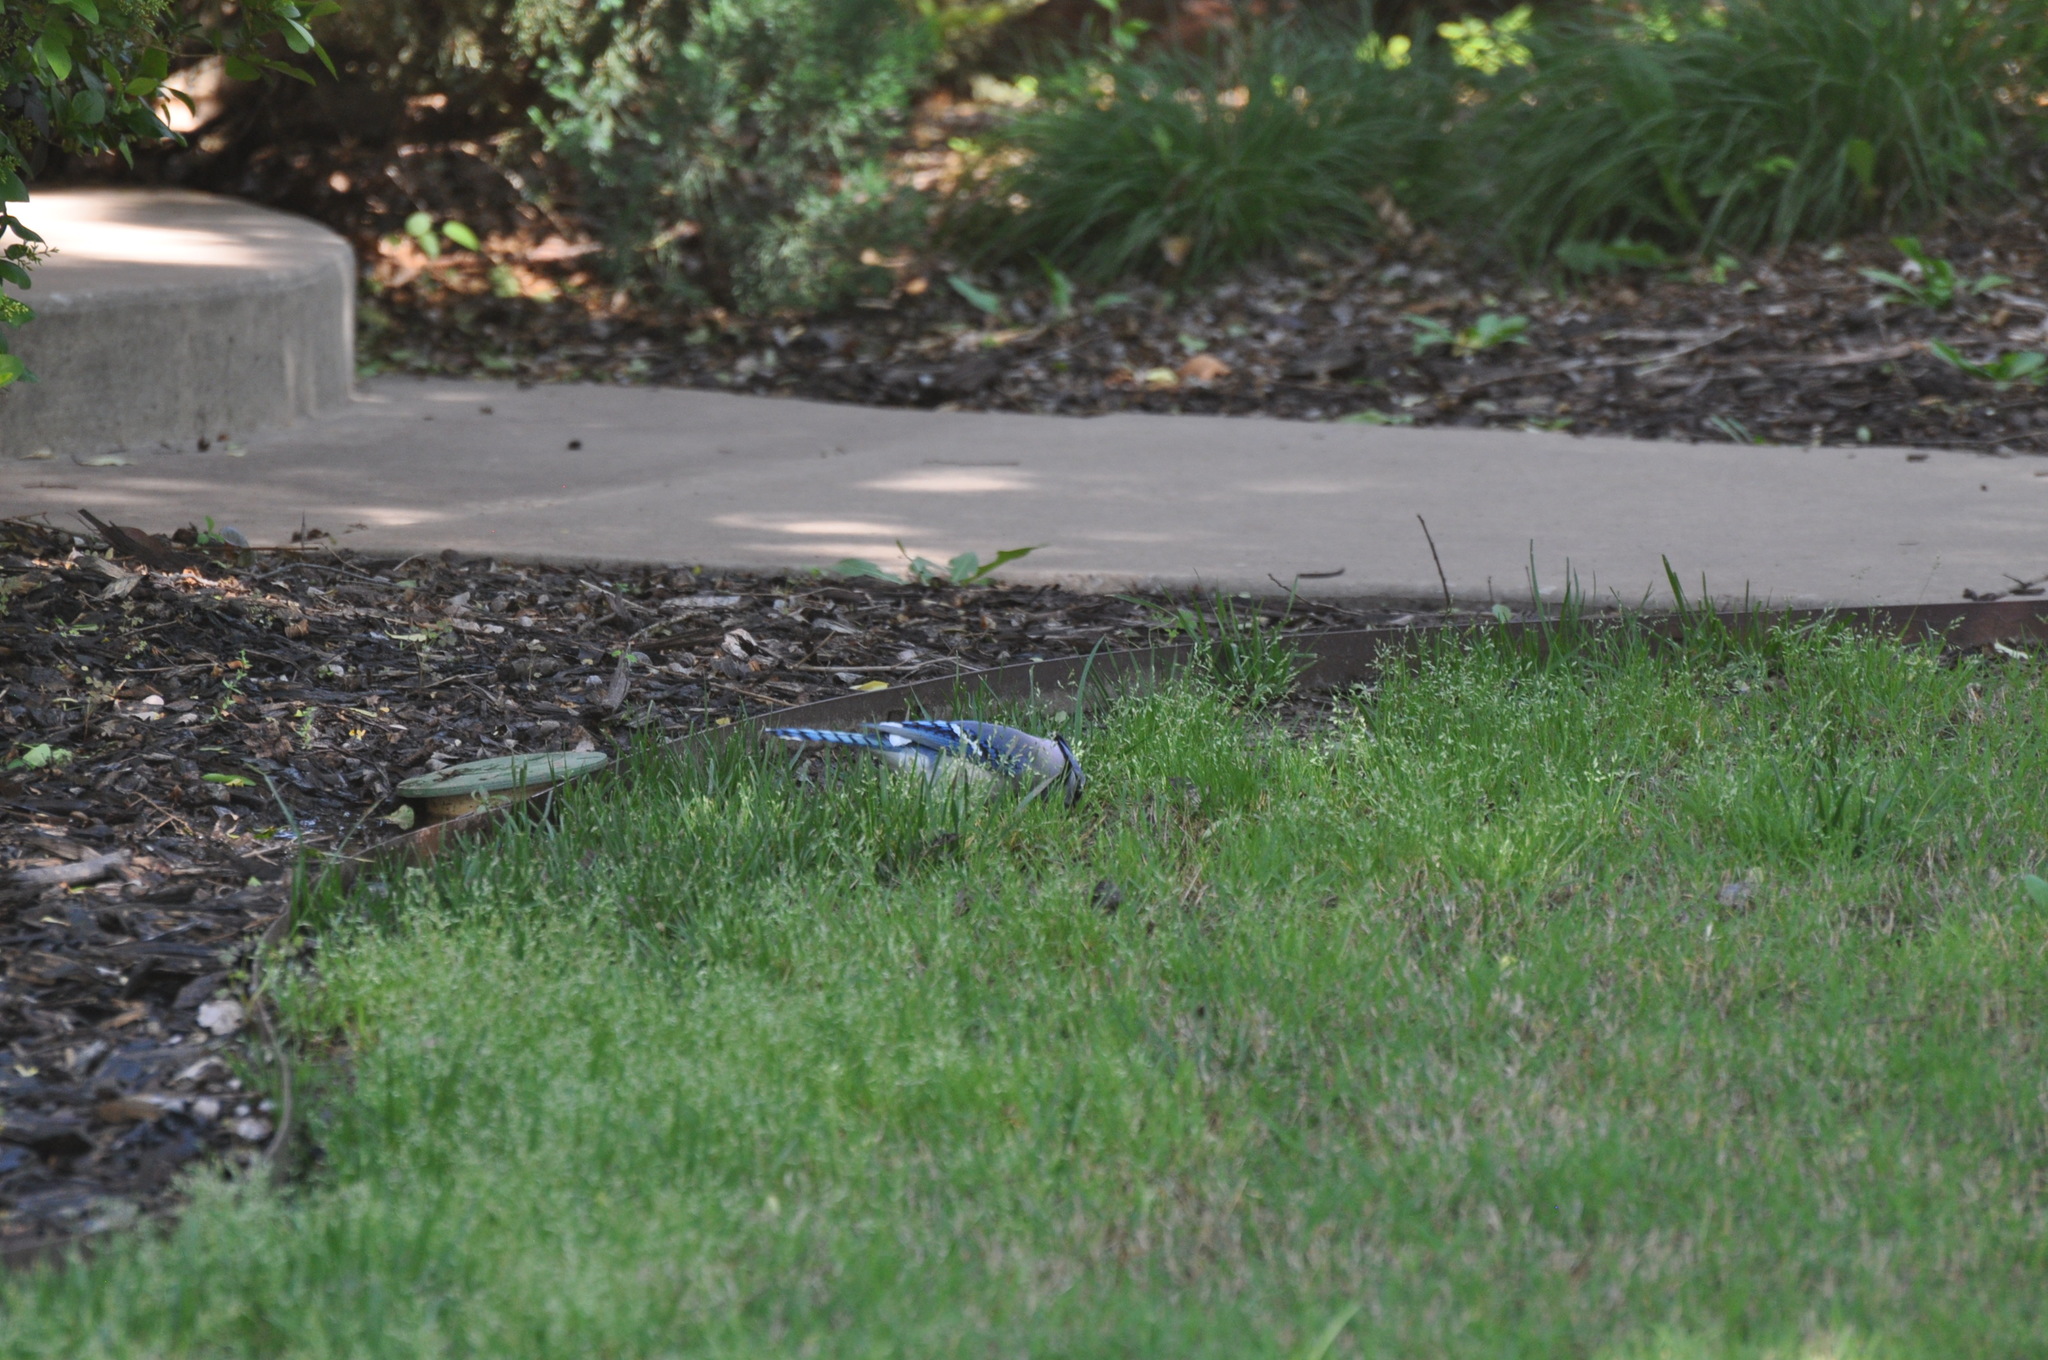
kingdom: Animalia
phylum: Chordata
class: Aves
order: Passeriformes
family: Corvidae
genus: Cyanocitta
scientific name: Cyanocitta cristata
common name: Blue jay
